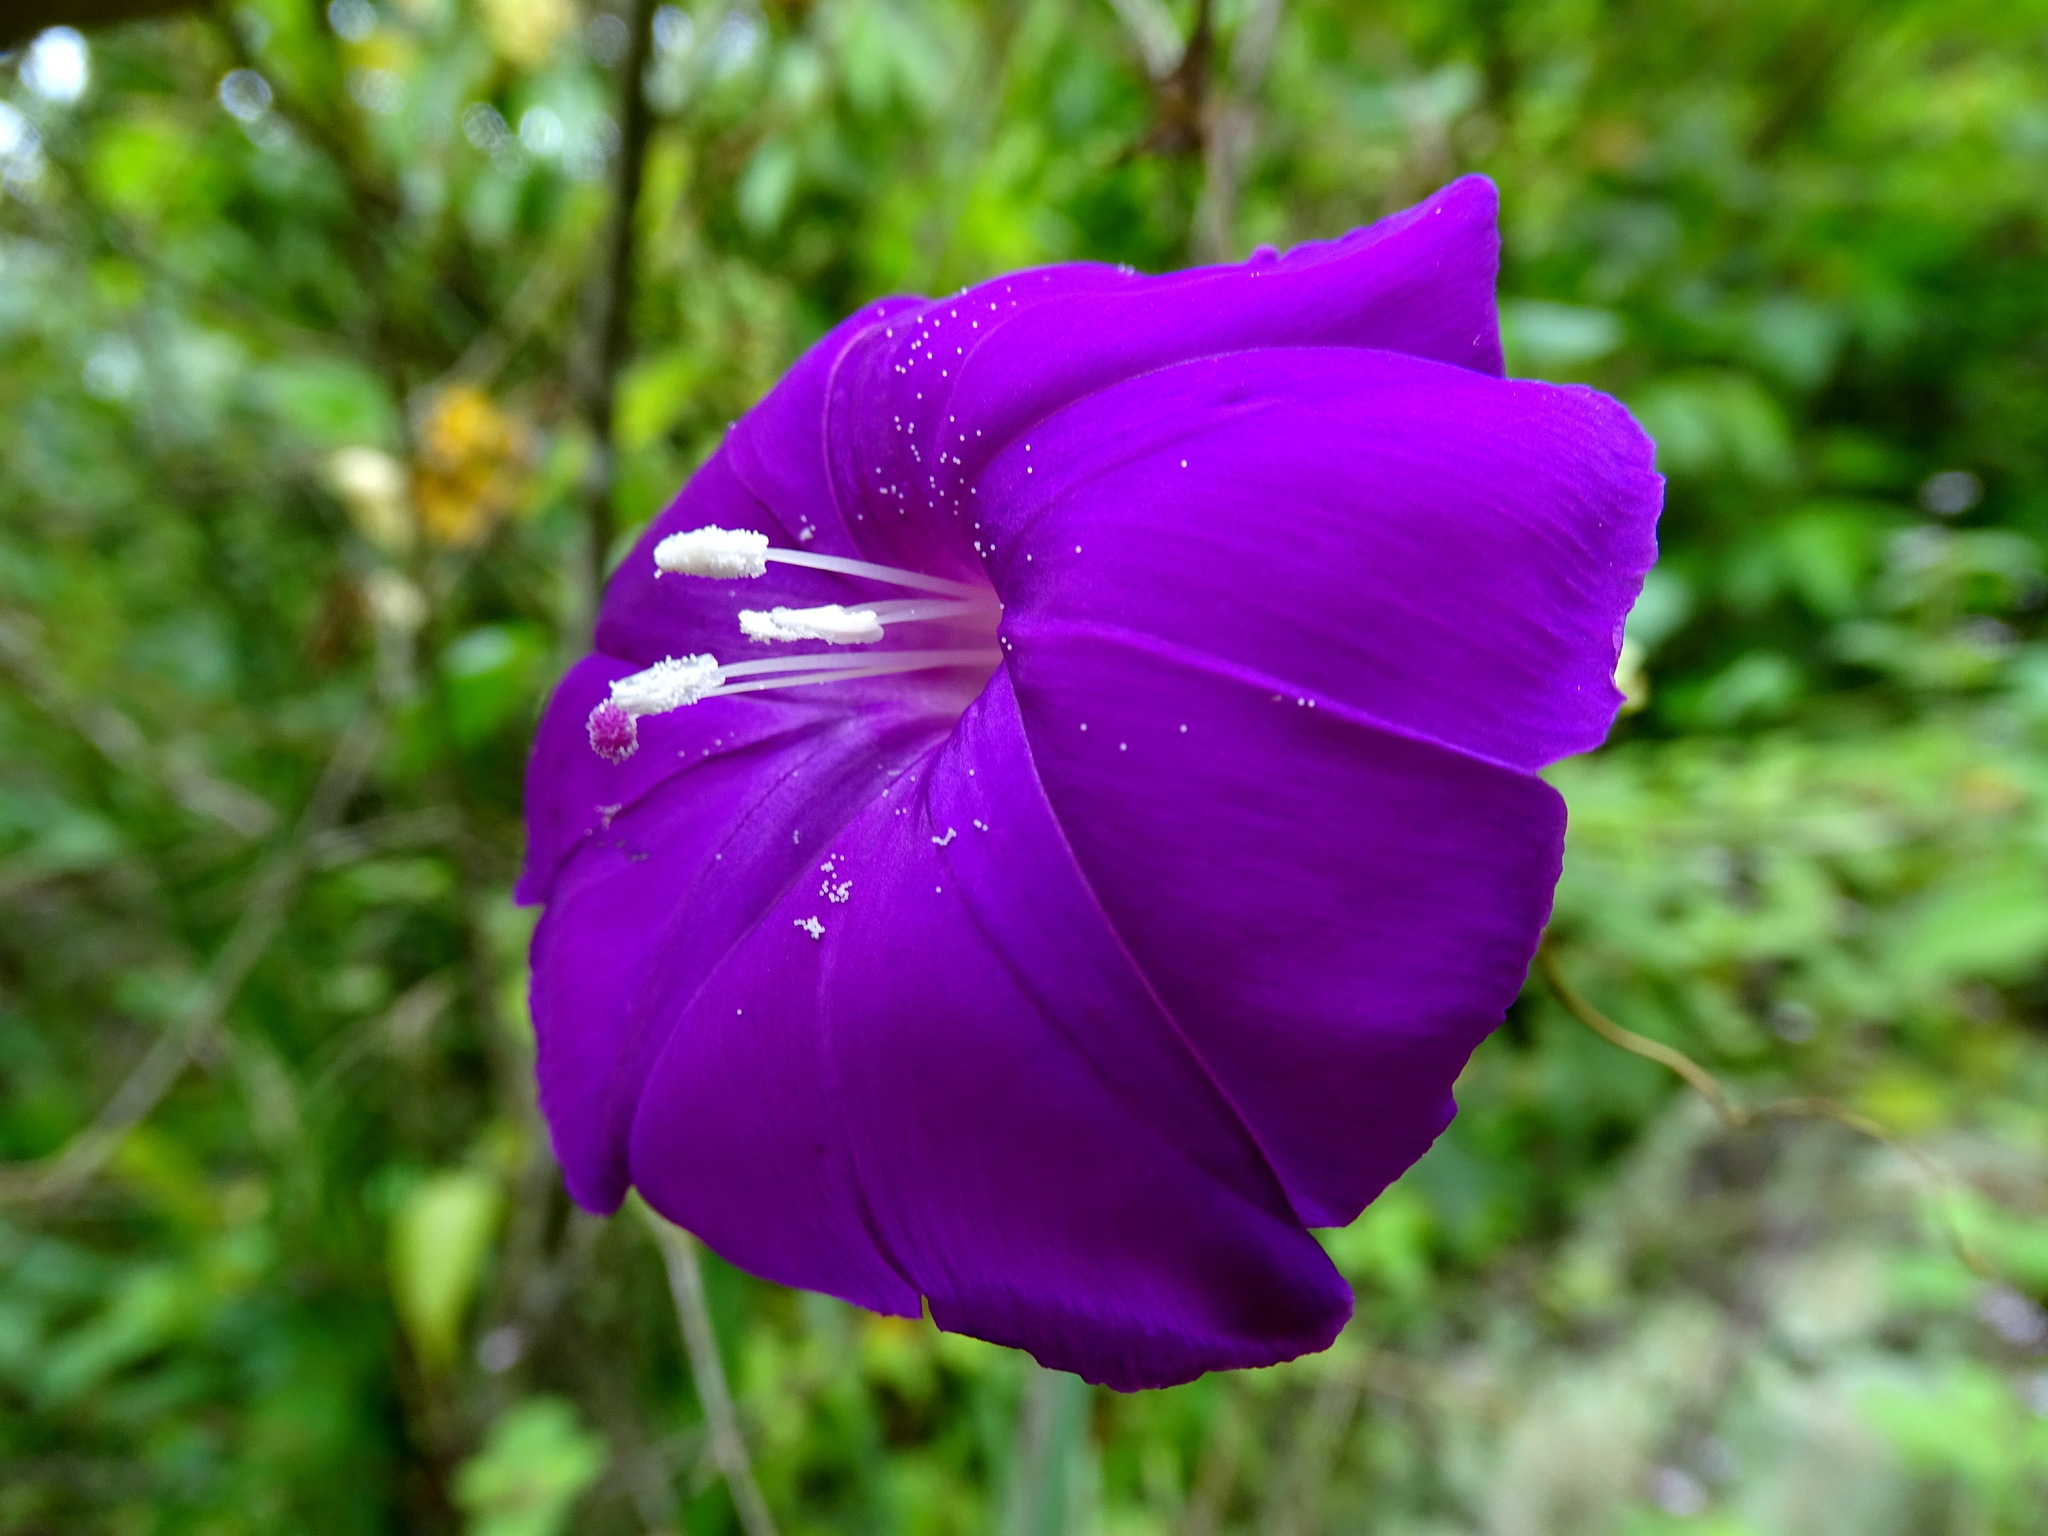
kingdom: Plantae
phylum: Tracheophyta
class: Magnoliopsida
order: Solanales
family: Convolvulaceae
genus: Ipomoea
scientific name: Ipomoea purga
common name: Jalap
